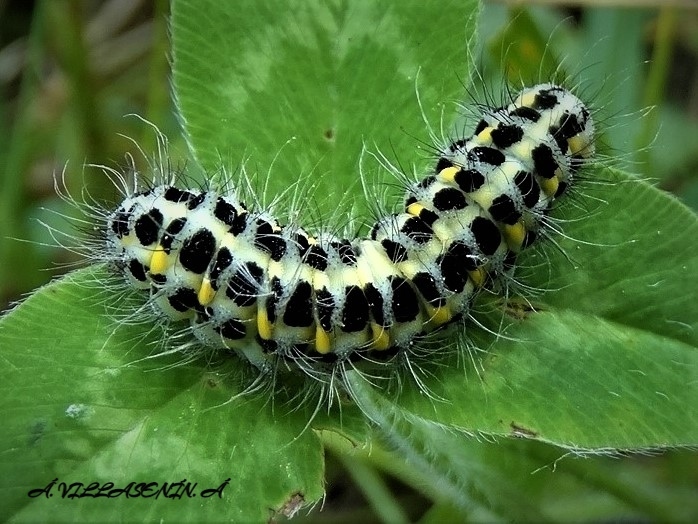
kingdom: Animalia
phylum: Arthropoda
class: Insecta
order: Lepidoptera
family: Zygaenidae
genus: Zygaena
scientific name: Zygaena lonicerae
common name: Narrow-bordered five-spot burnet
